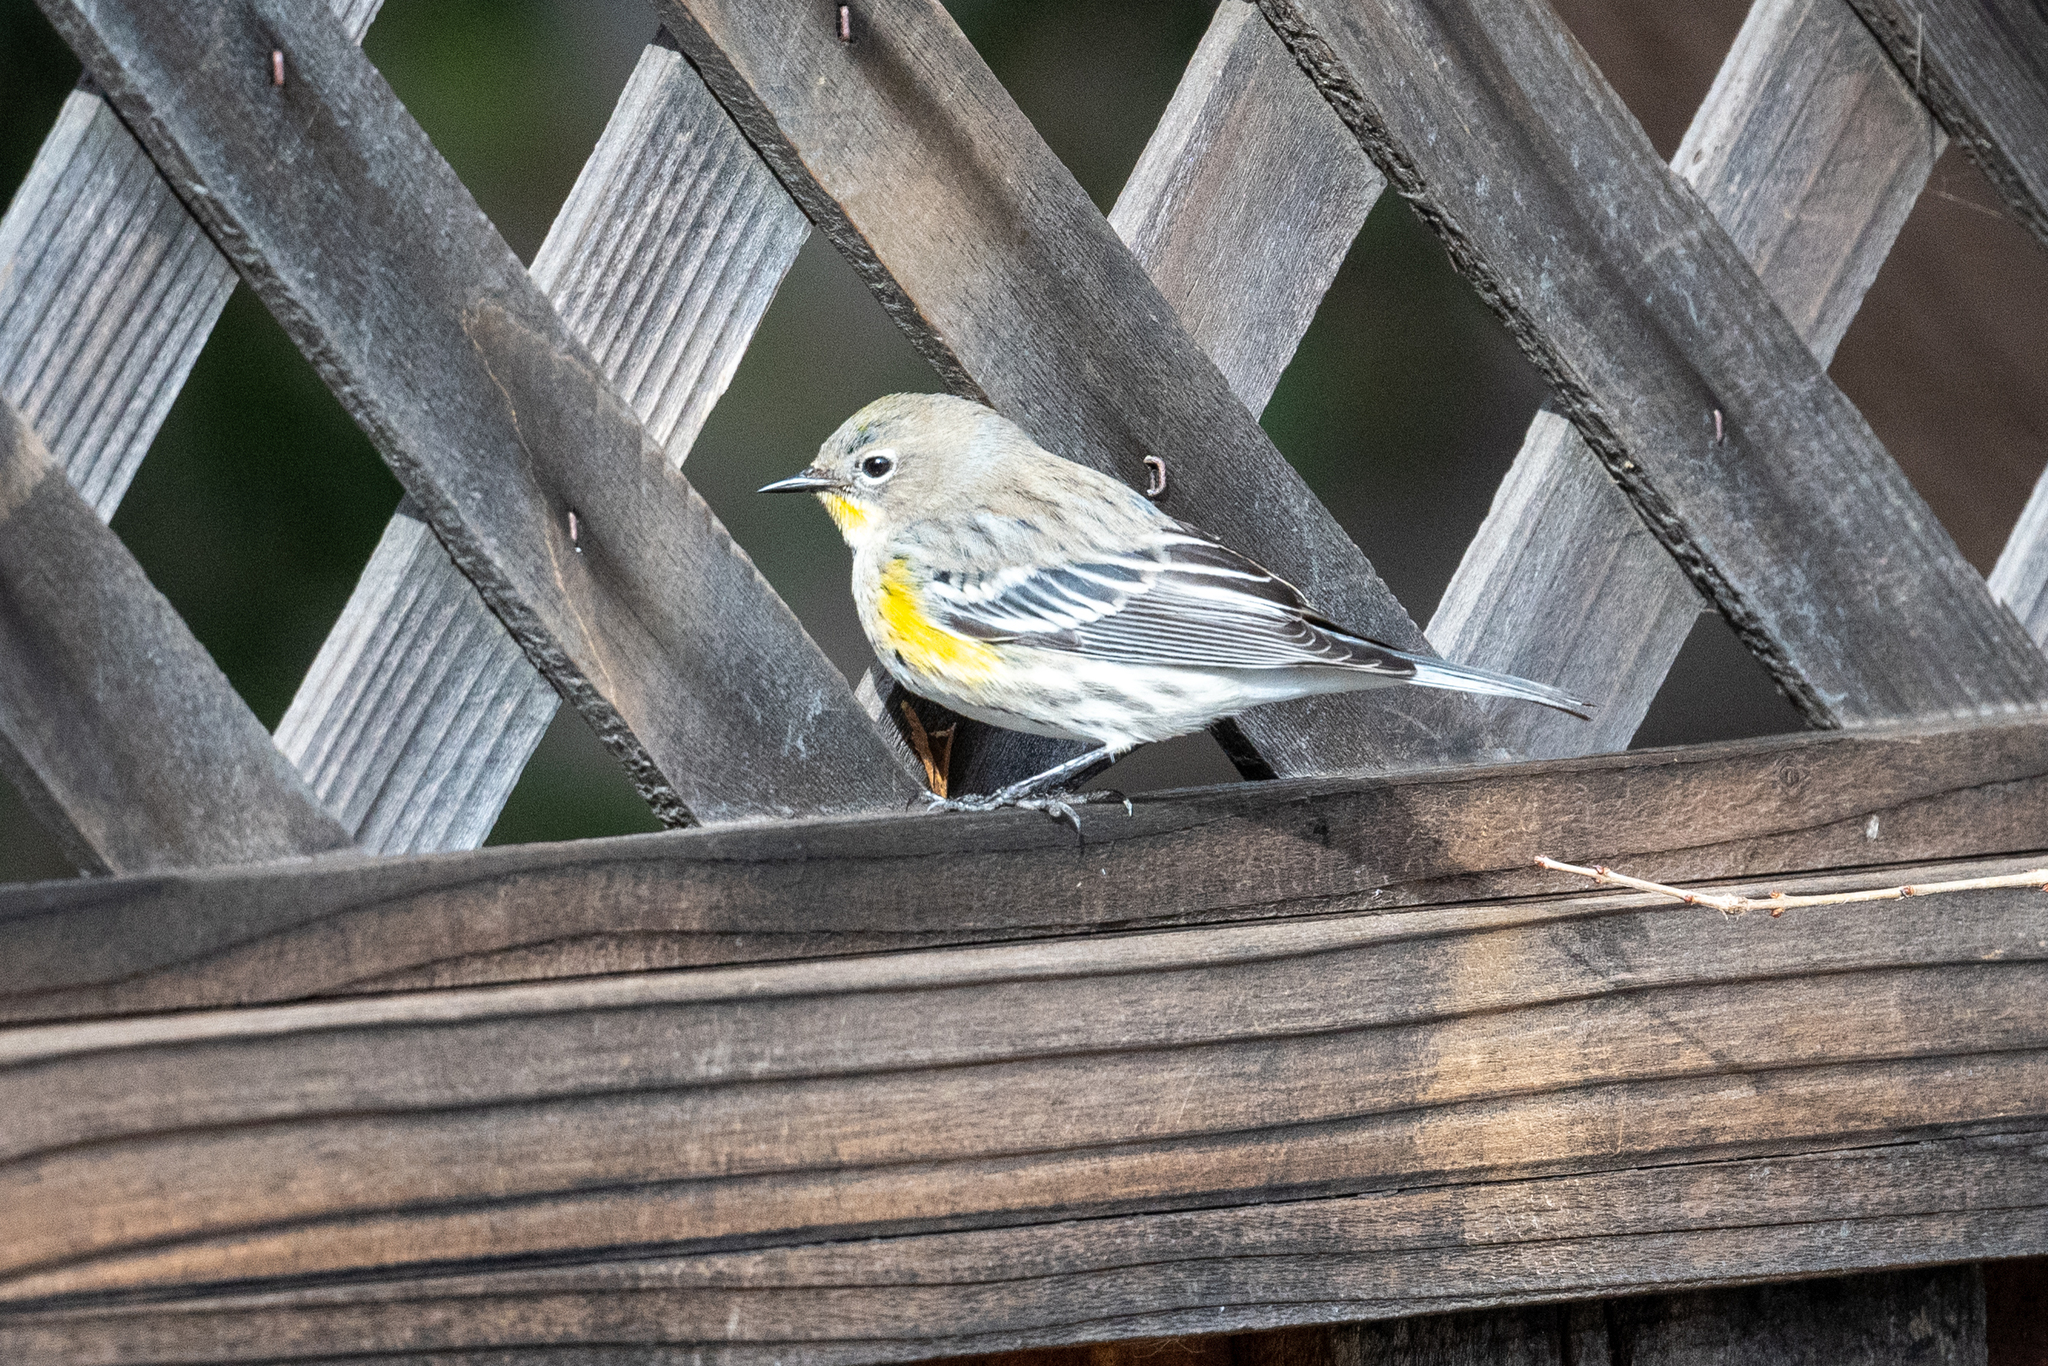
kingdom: Animalia
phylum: Chordata
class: Aves
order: Passeriformes
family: Parulidae
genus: Setophaga
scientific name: Setophaga coronata
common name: Myrtle warbler
